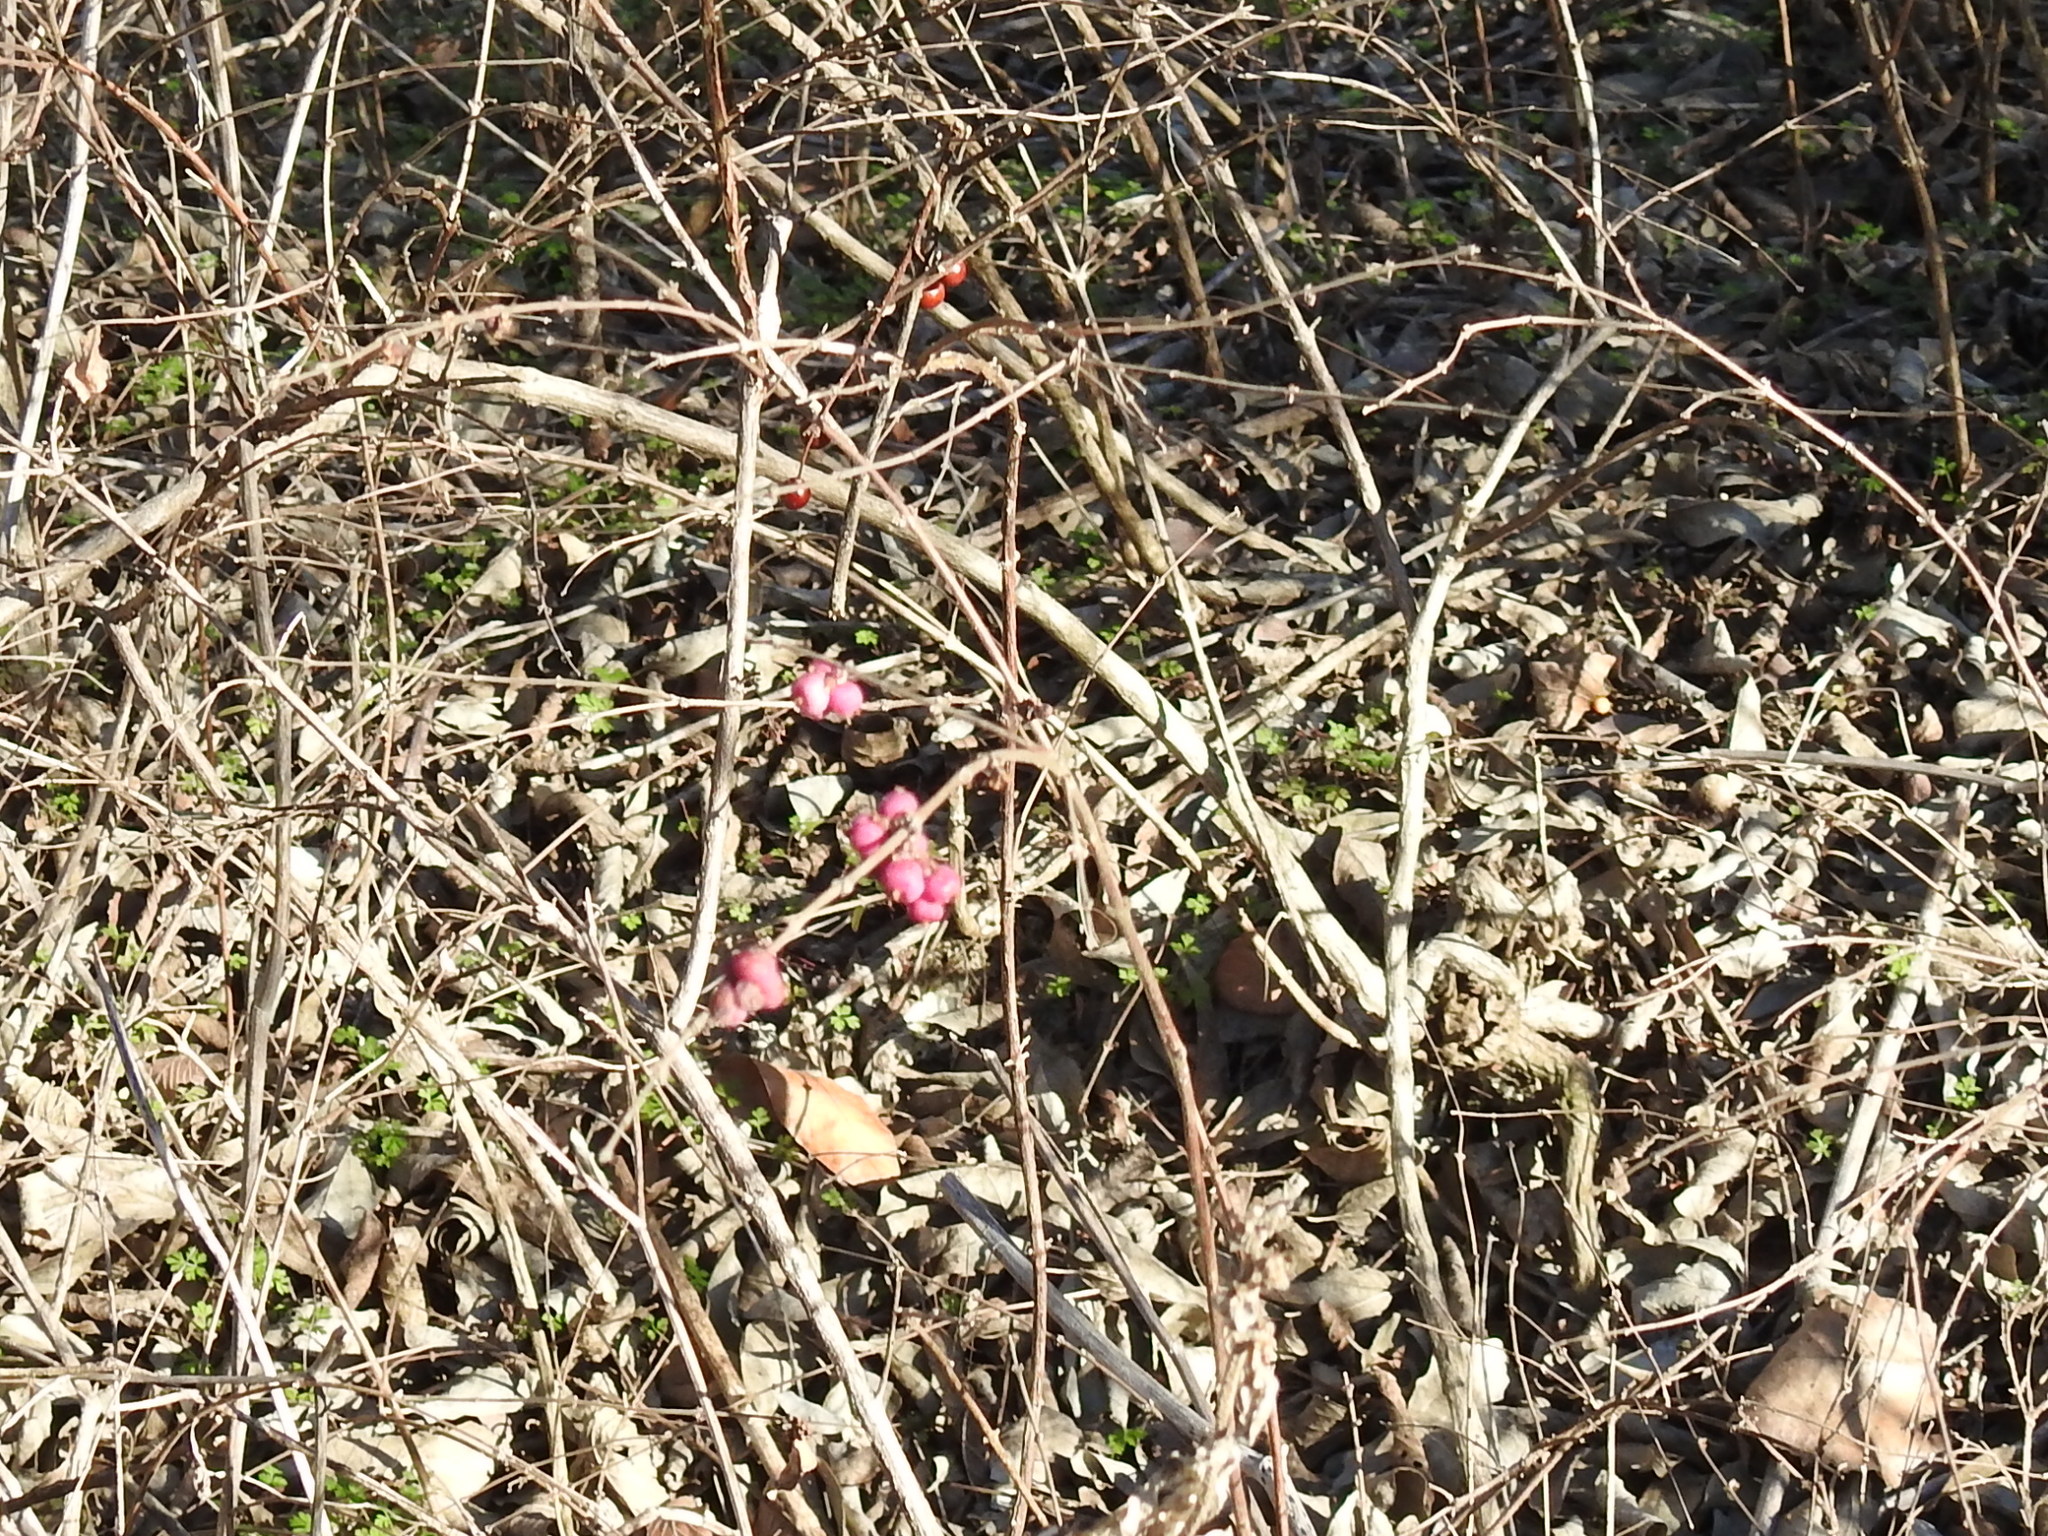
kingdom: Plantae
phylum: Tracheophyta
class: Magnoliopsida
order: Dipsacales
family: Caprifoliaceae
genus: Symphoricarpos
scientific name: Symphoricarpos orbiculatus
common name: Coralberry
